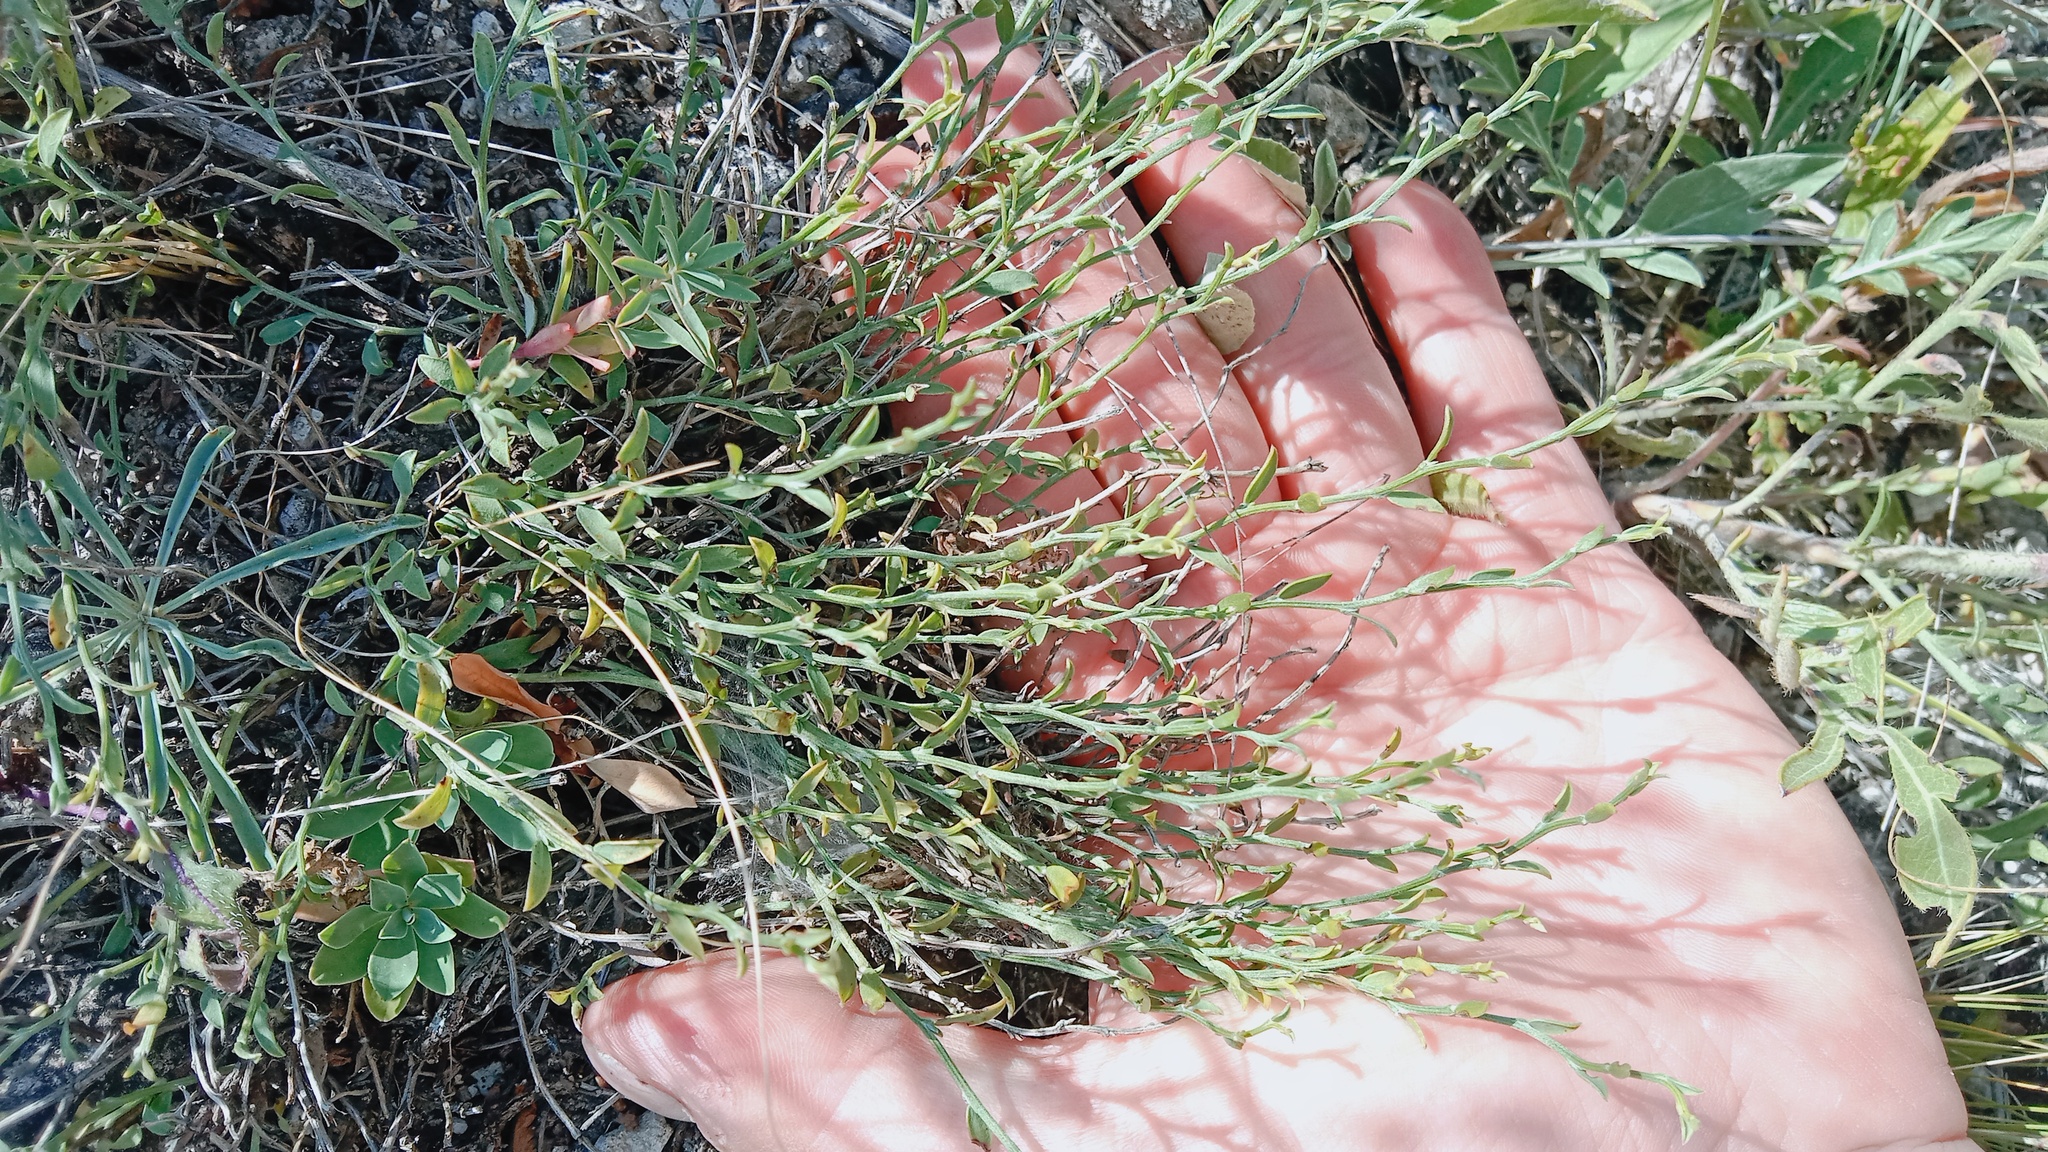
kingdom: Plantae
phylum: Tracheophyta
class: Magnoliopsida
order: Fabales
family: Fabaceae
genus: Genista
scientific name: Genista albida
